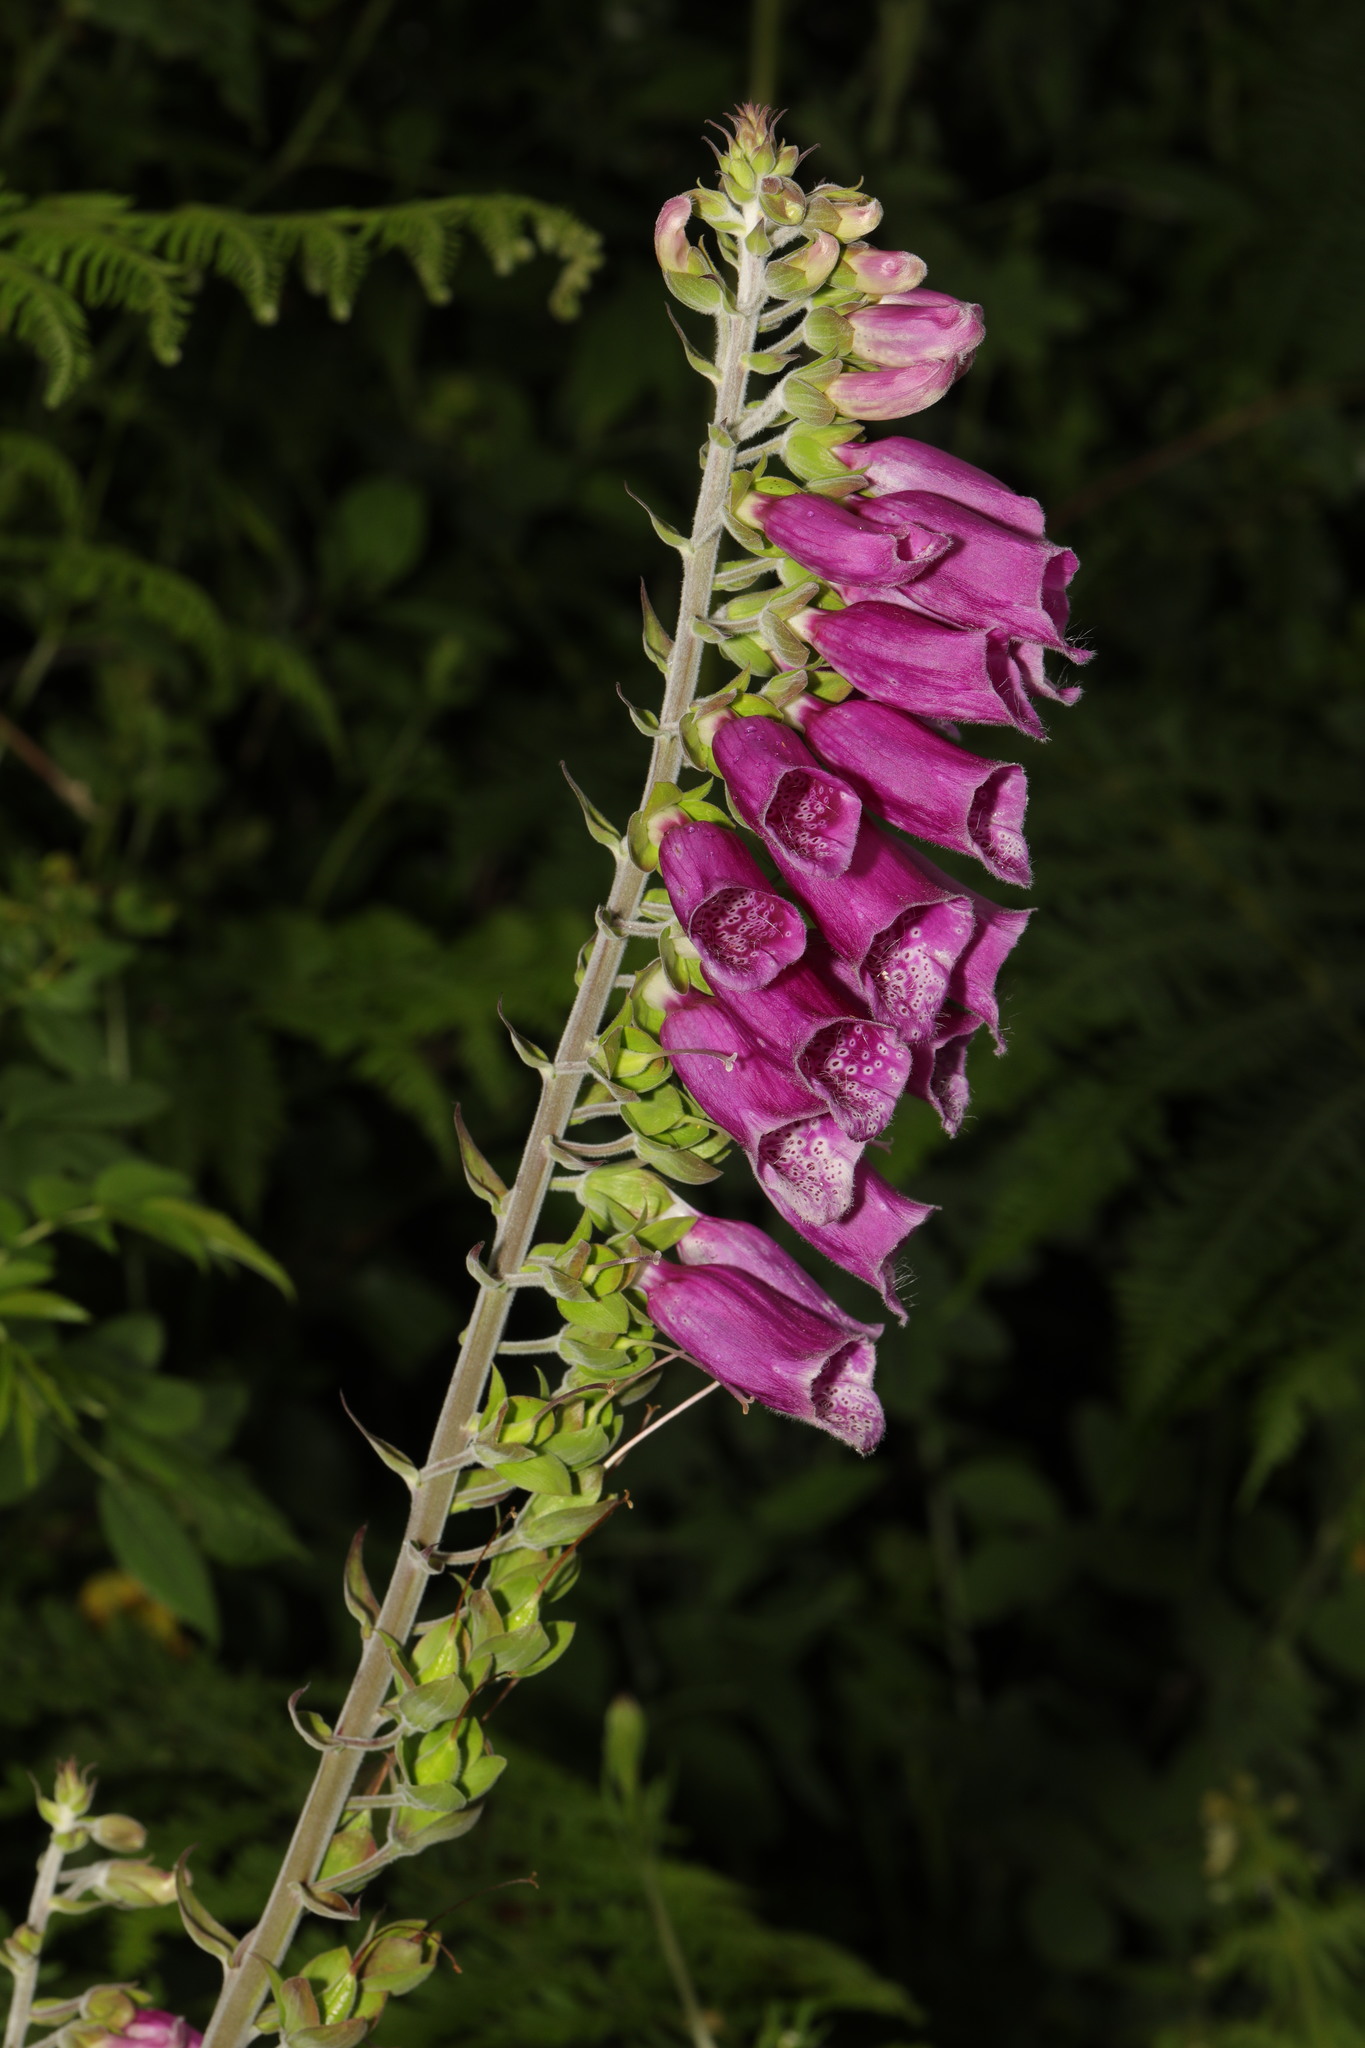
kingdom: Plantae
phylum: Tracheophyta
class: Magnoliopsida
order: Lamiales
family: Plantaginaceae
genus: Digitalis
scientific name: Digitalis purpurea
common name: Foxglove
